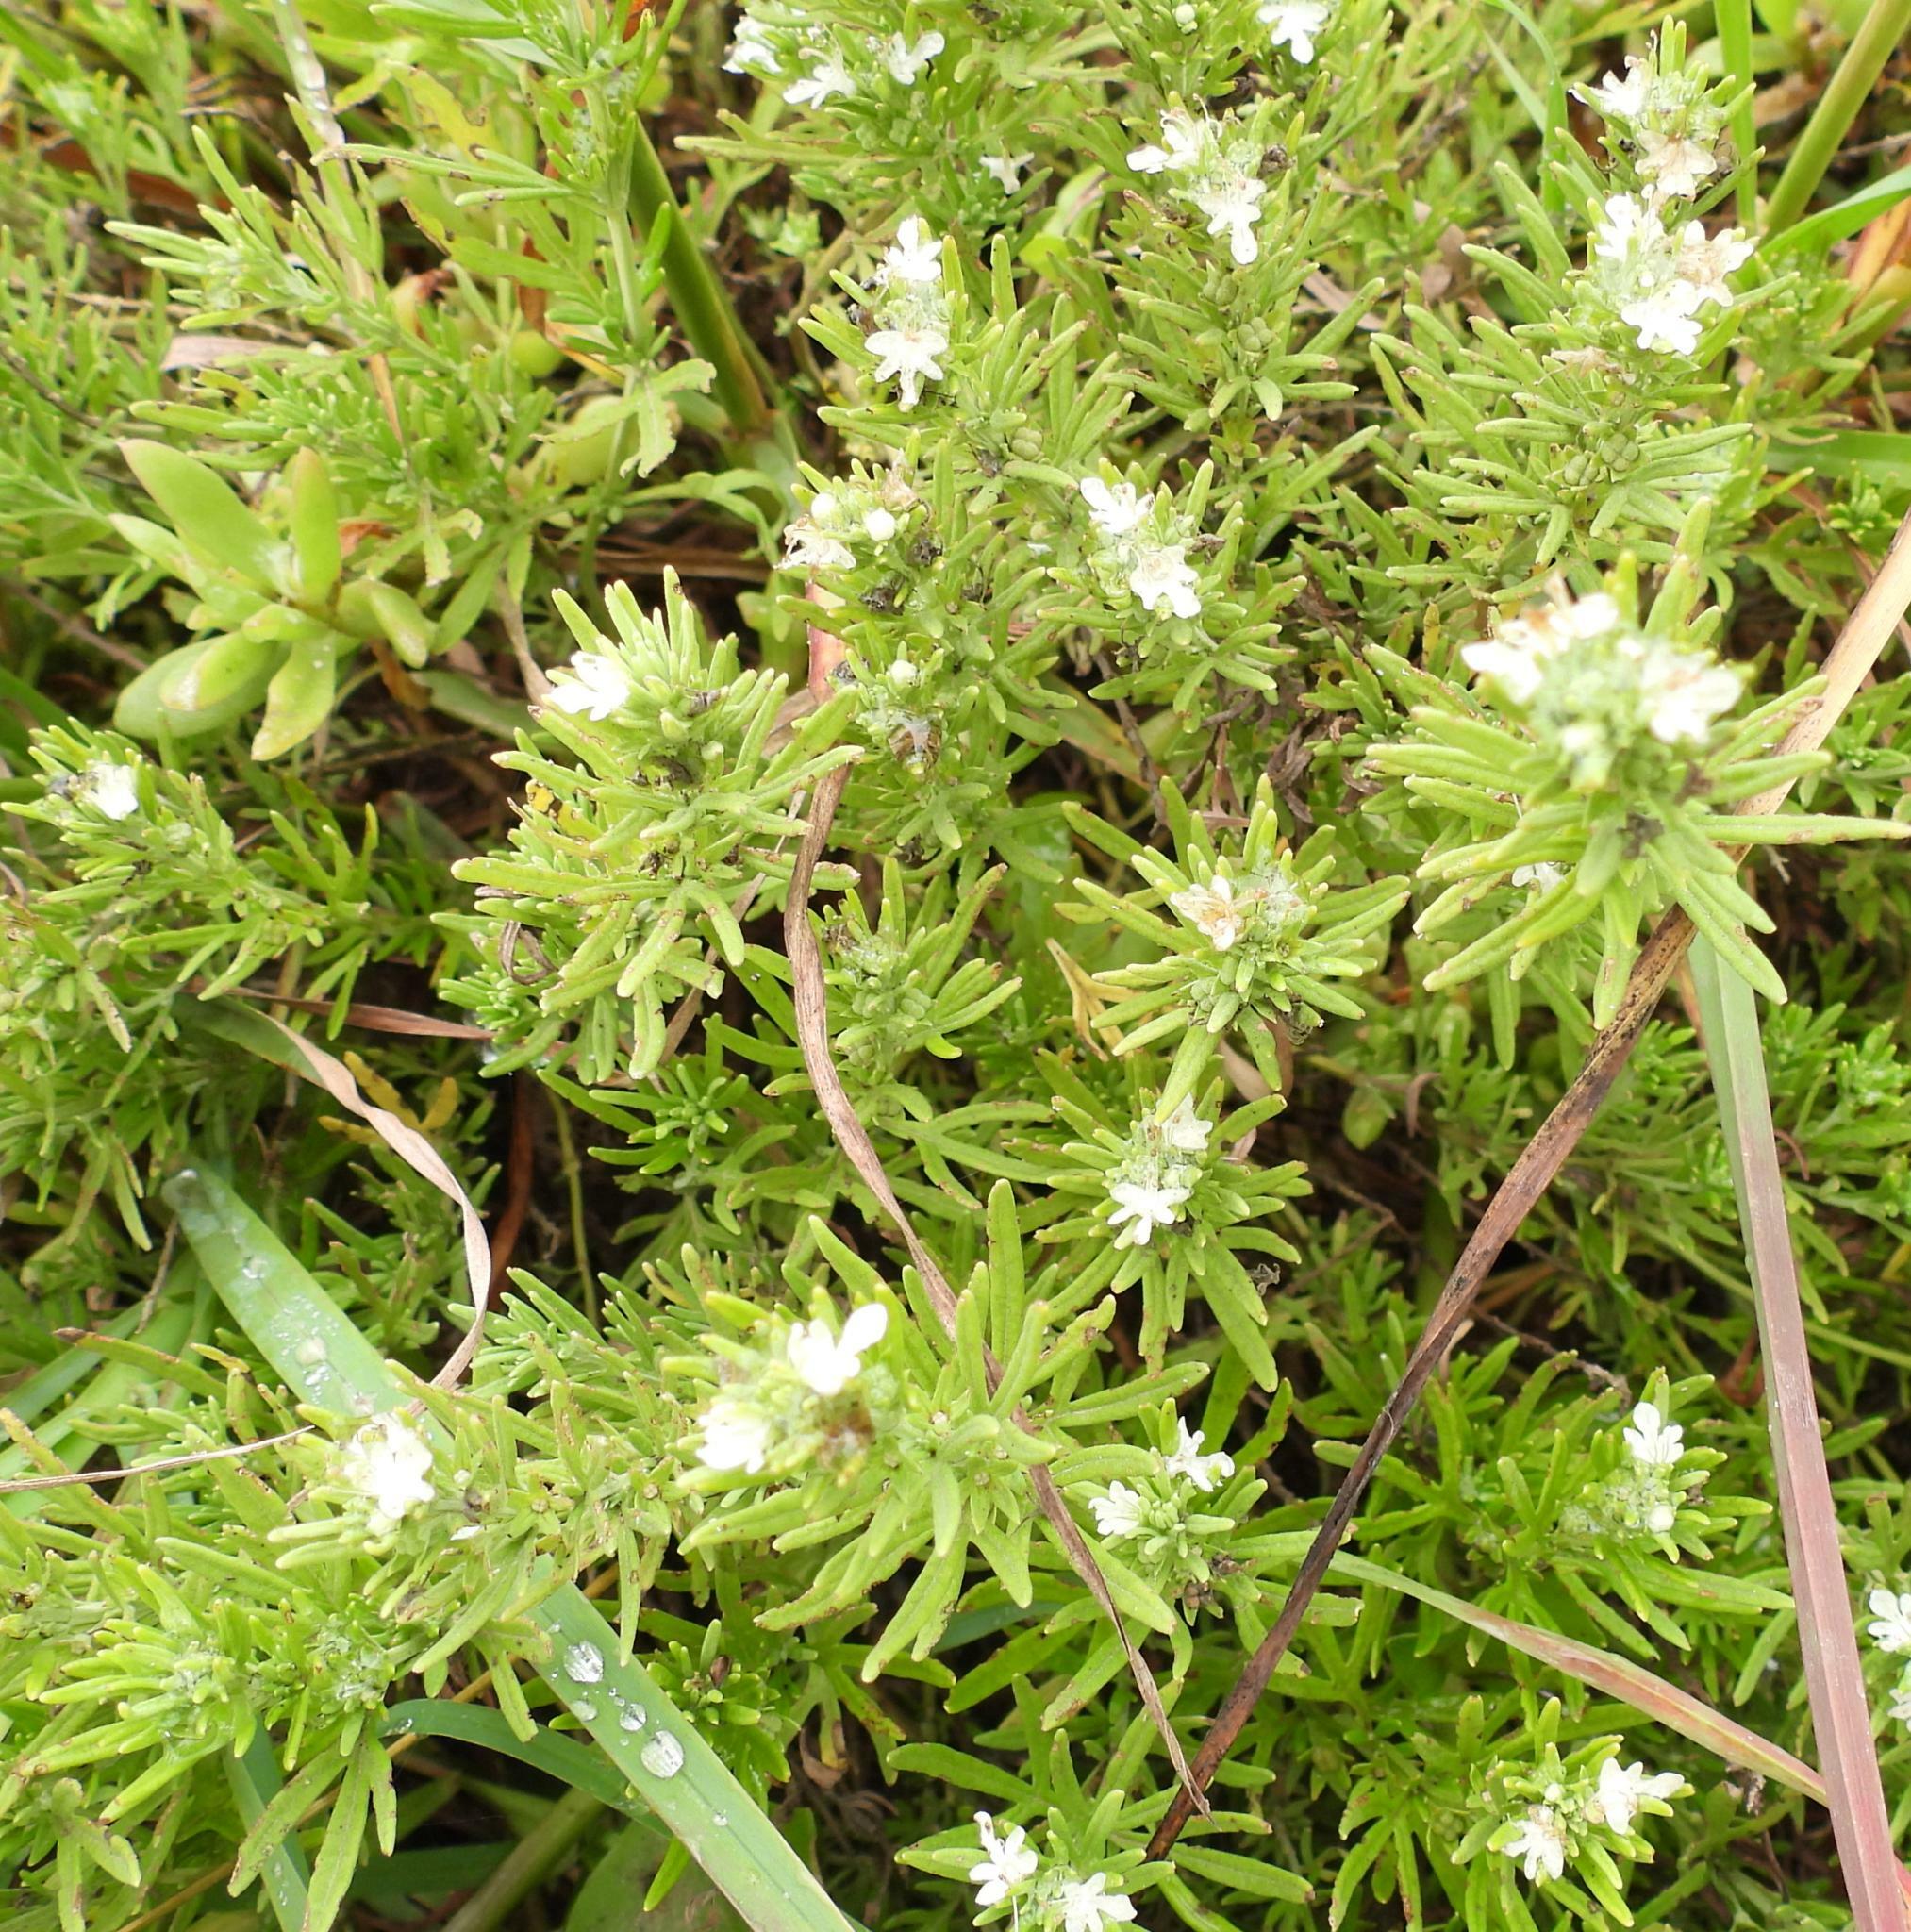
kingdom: Plantae
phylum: Tracheophyta
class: Magnoliopsida
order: Lamiales
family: Lamiaceae
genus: Teucrium
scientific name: Teucrium trifidum
